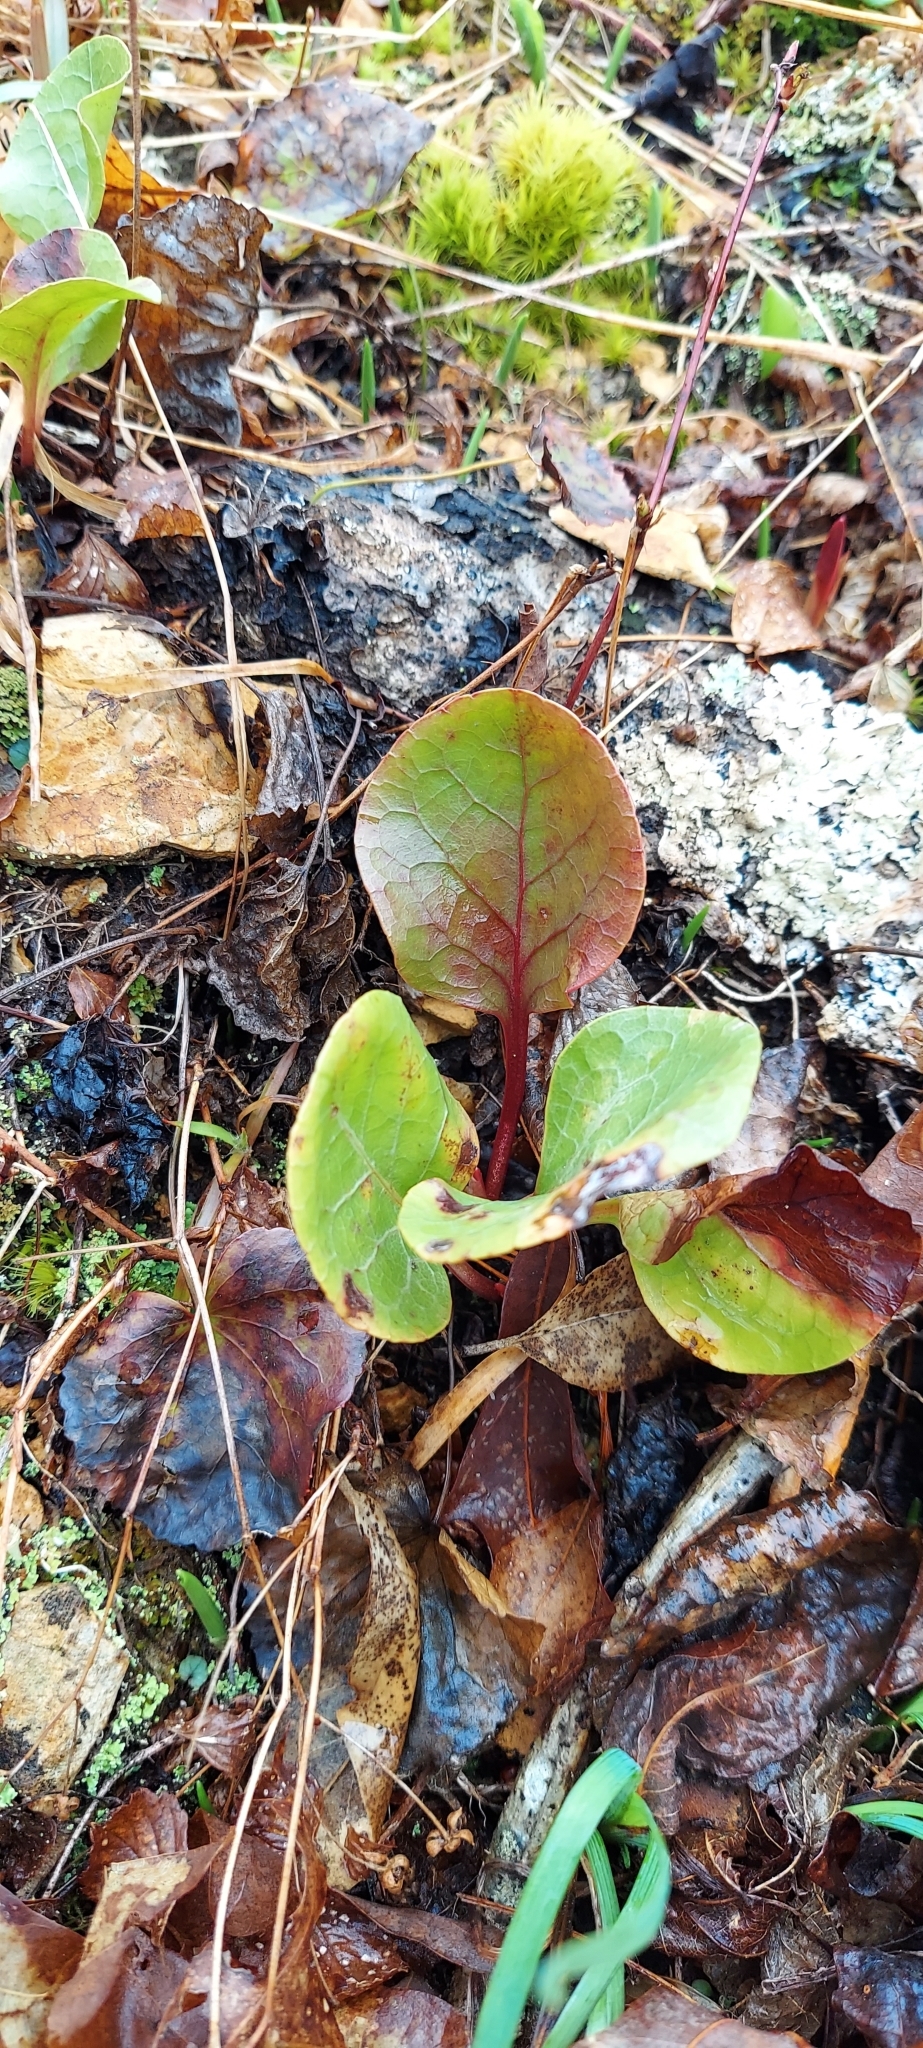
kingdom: Plantae
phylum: Tracheophyta
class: Magnoliopsida
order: Ericales
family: Ericaceae
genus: Pyrola
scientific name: Pyrola americana
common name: American wintergreen
